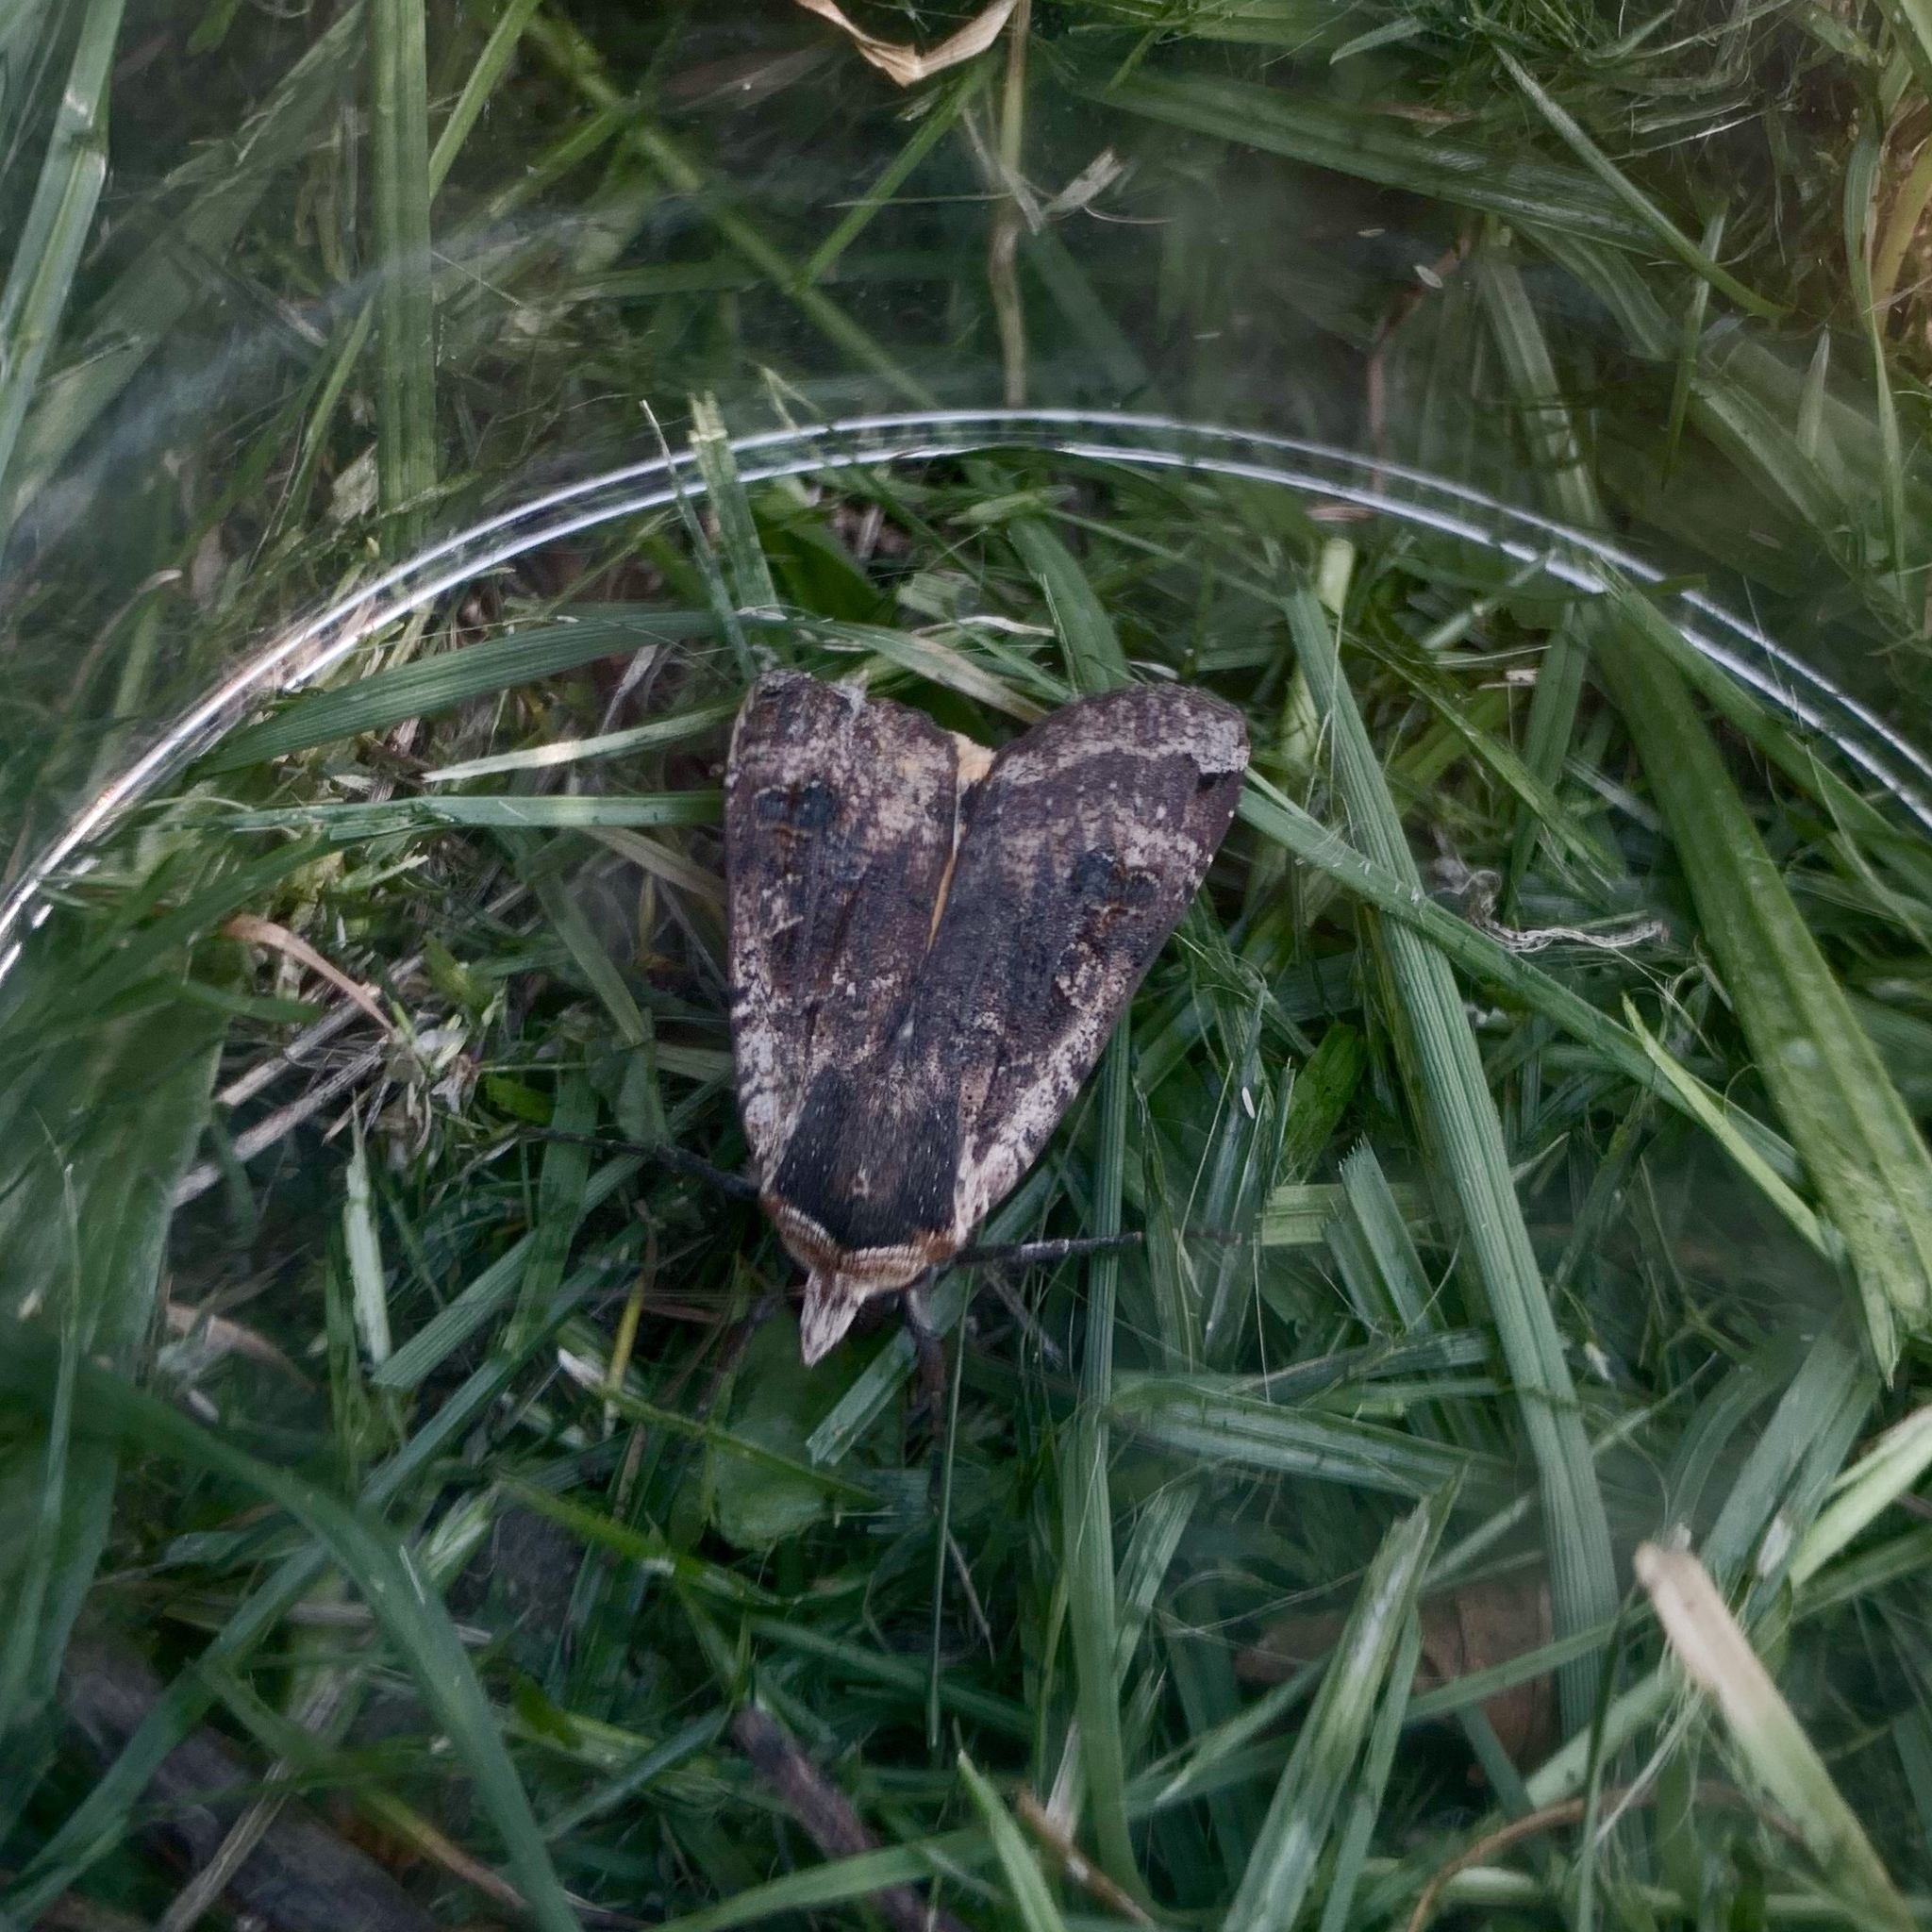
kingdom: Animalia
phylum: Arthropoda
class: Insecta
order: Lepidoptera
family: Noctuidae
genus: Noctua
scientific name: Noctua pronuba
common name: Large yellow underwing
